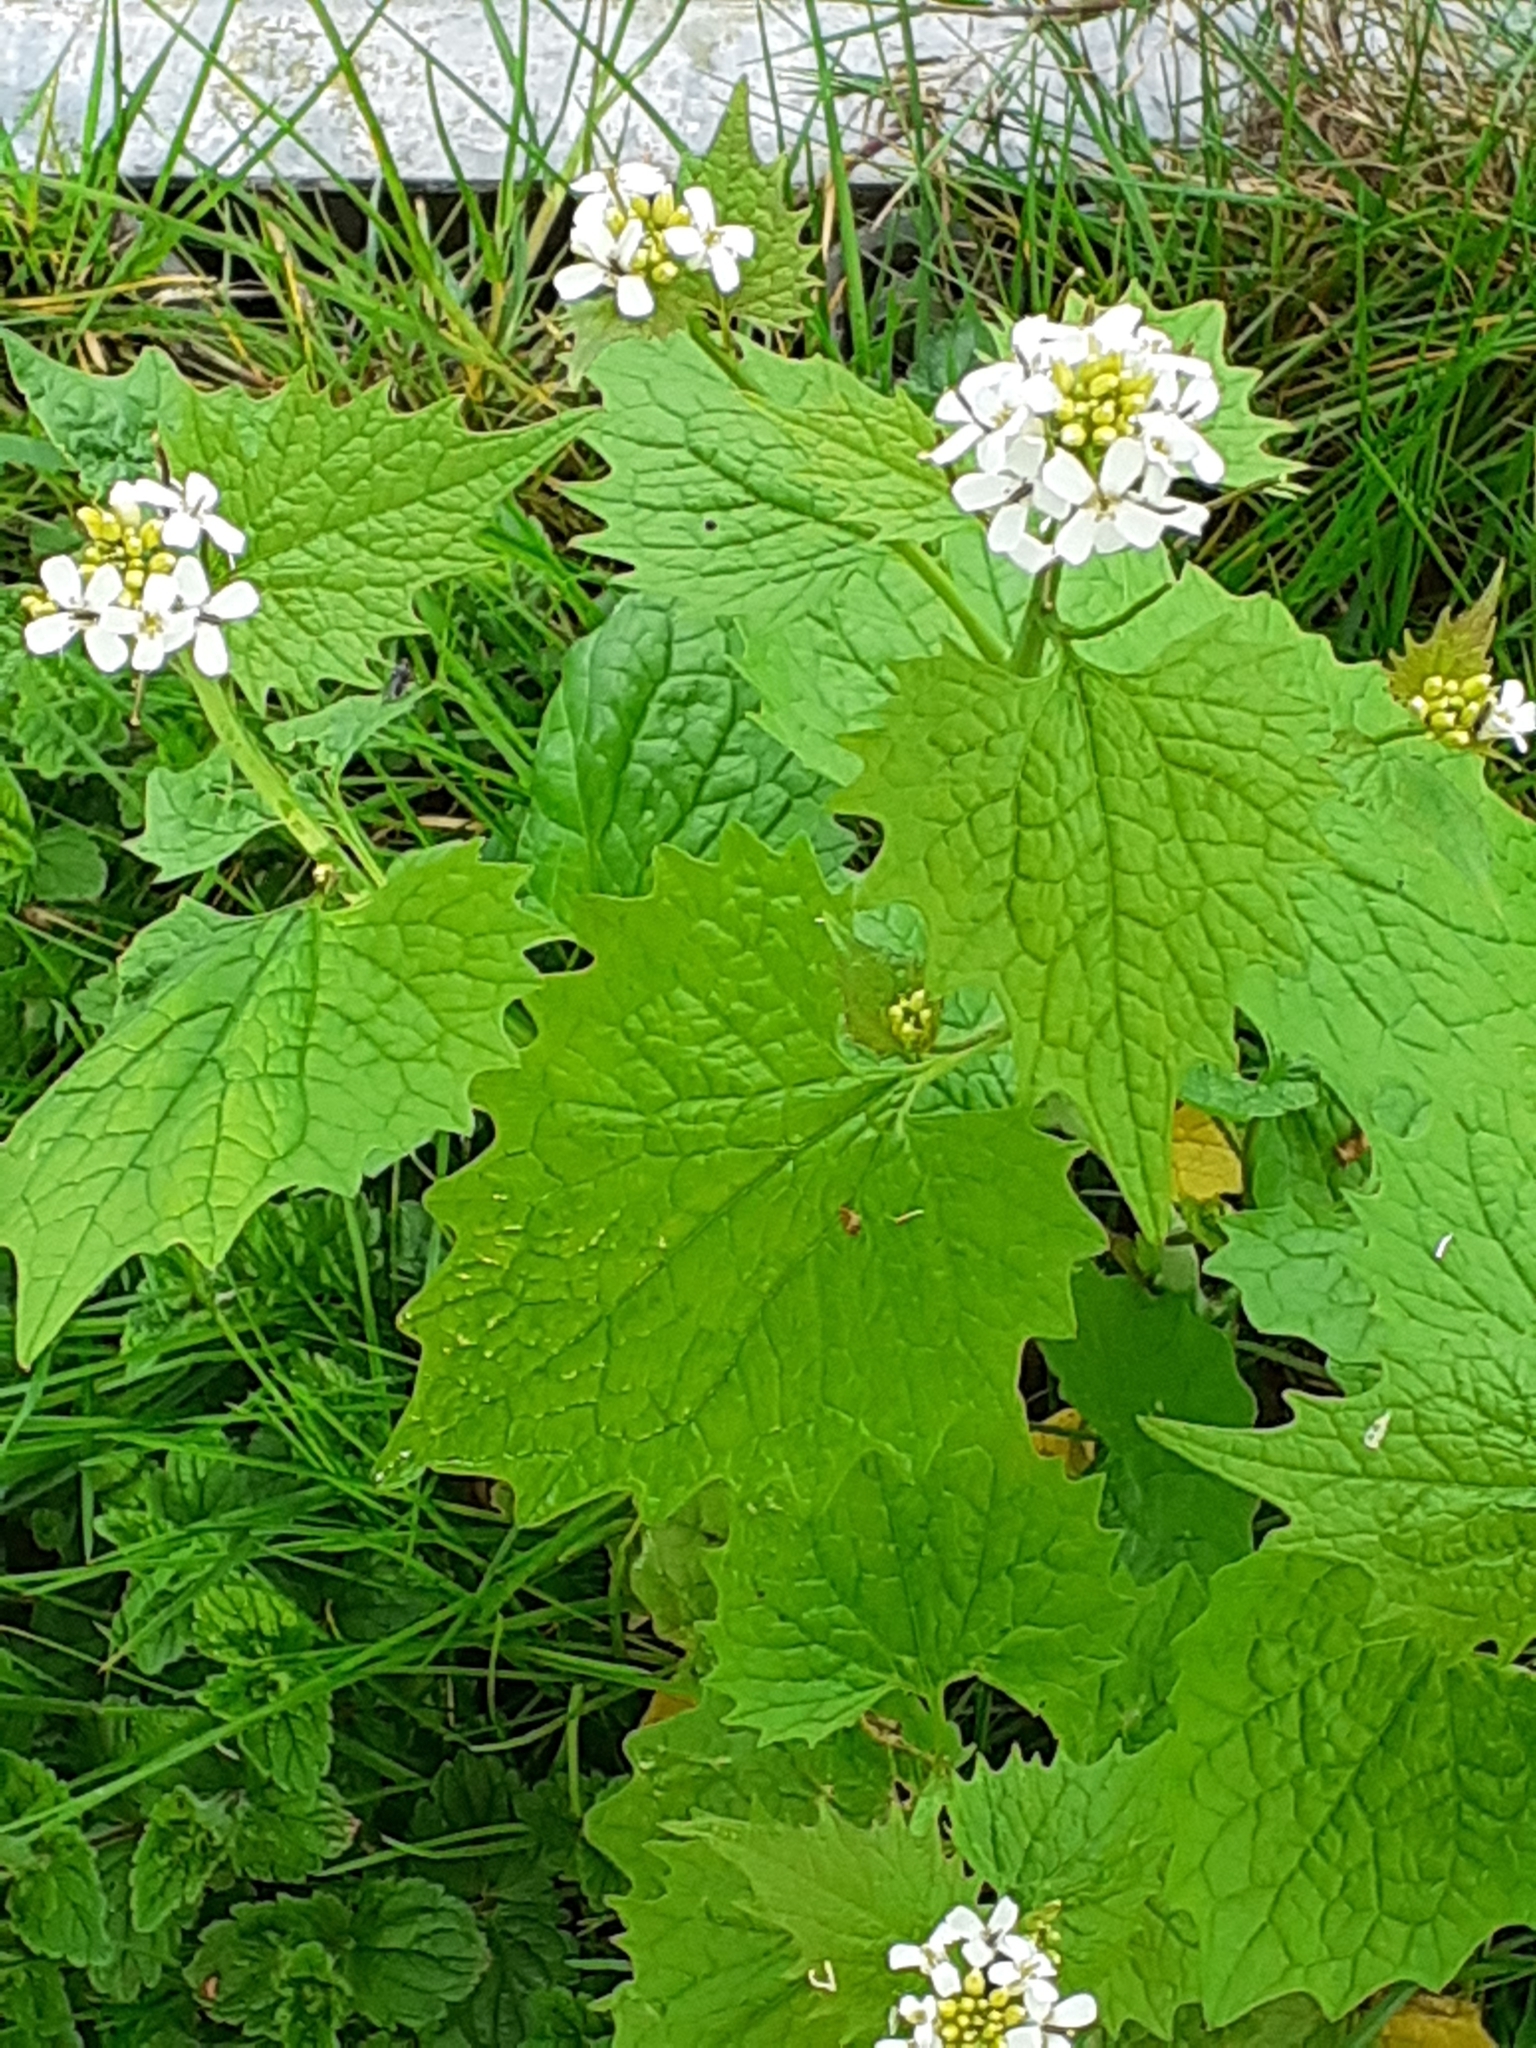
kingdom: Plantae
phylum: Tracheophyta
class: Magnoliopsida
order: Brassicales
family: Brassicaceae
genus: Alliaria
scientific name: Alliaria petiolata
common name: Garlic mustard
